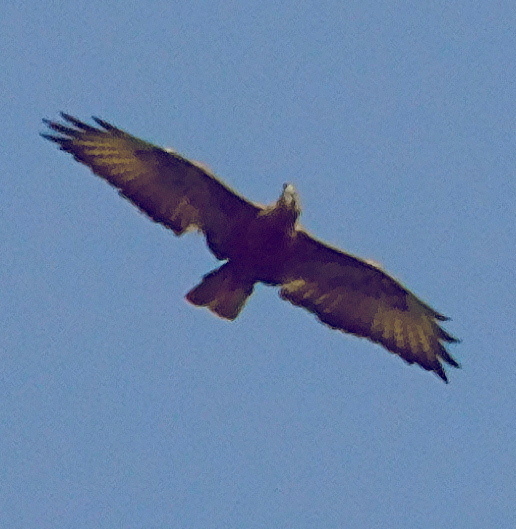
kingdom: Animalia
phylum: Chordata
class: Aves
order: Accipitriformes
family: Accipitridae
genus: Buteo
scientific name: Buteo buteo
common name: Common buzzard
